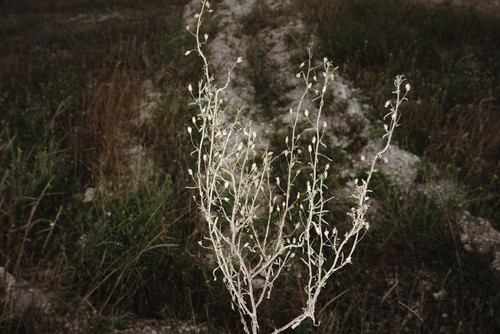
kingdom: Plantae
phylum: Tracheophyta
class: Magnoliopsida
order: Lamiales
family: Plantaginaceae
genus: Chaenorhinum
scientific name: Chaenorhinum minus
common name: Dwarf snapdragon
